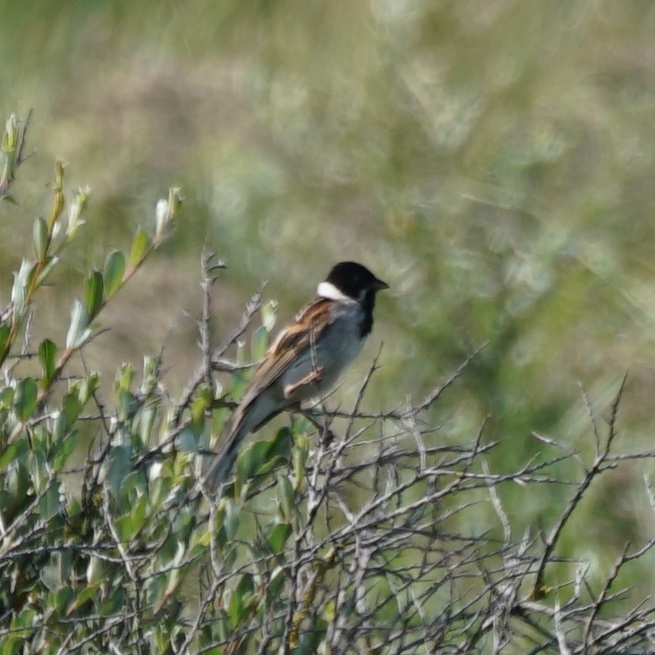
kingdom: Animalia
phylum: Chordata
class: Aves
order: Passeriformes
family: Emberizidae
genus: Emberiza
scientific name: Emberiza schoeniclus
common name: Reed bunting
